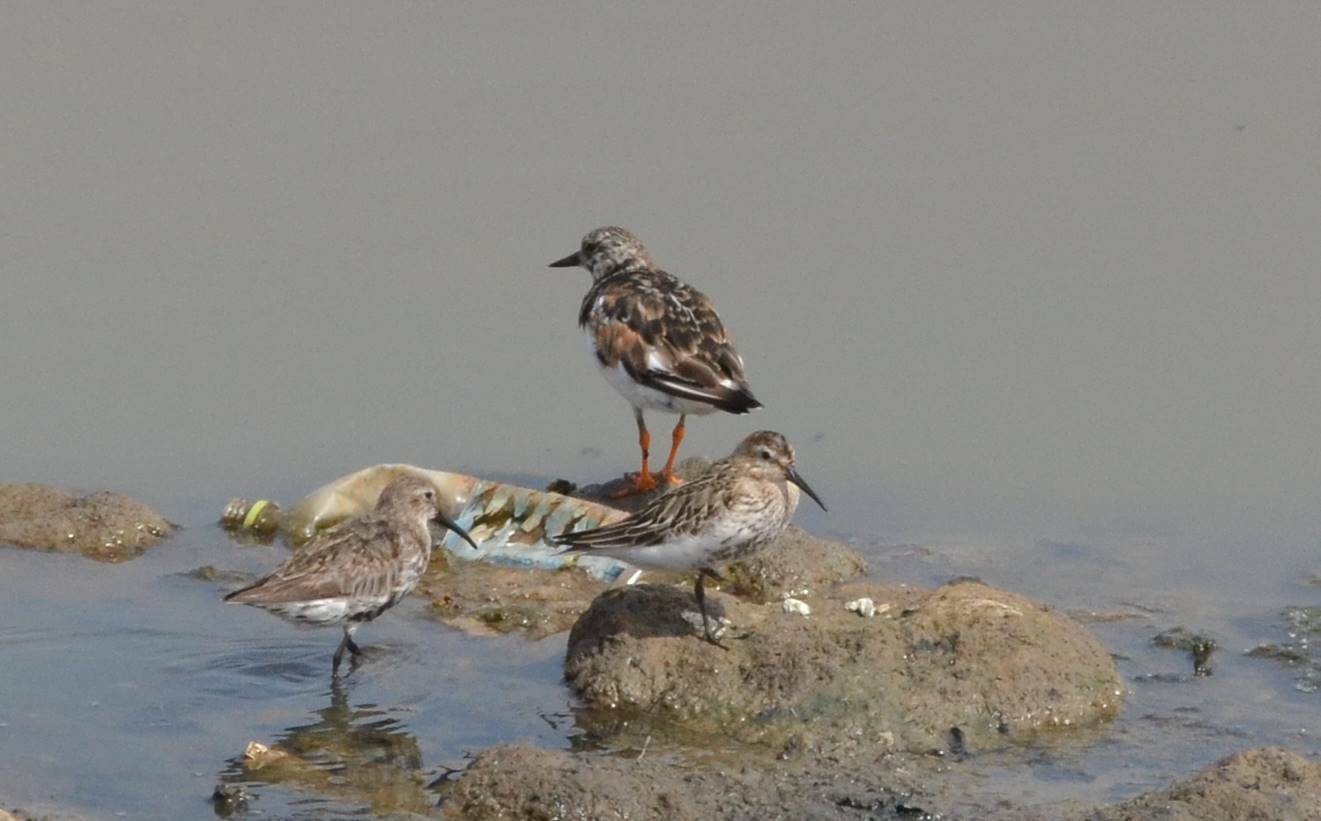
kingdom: Animalia
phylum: Chordata
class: Aves
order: Charadriiformes
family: Scolopacidae
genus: Arenaria
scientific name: Arenaria interpres
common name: Ruddy turnstone
